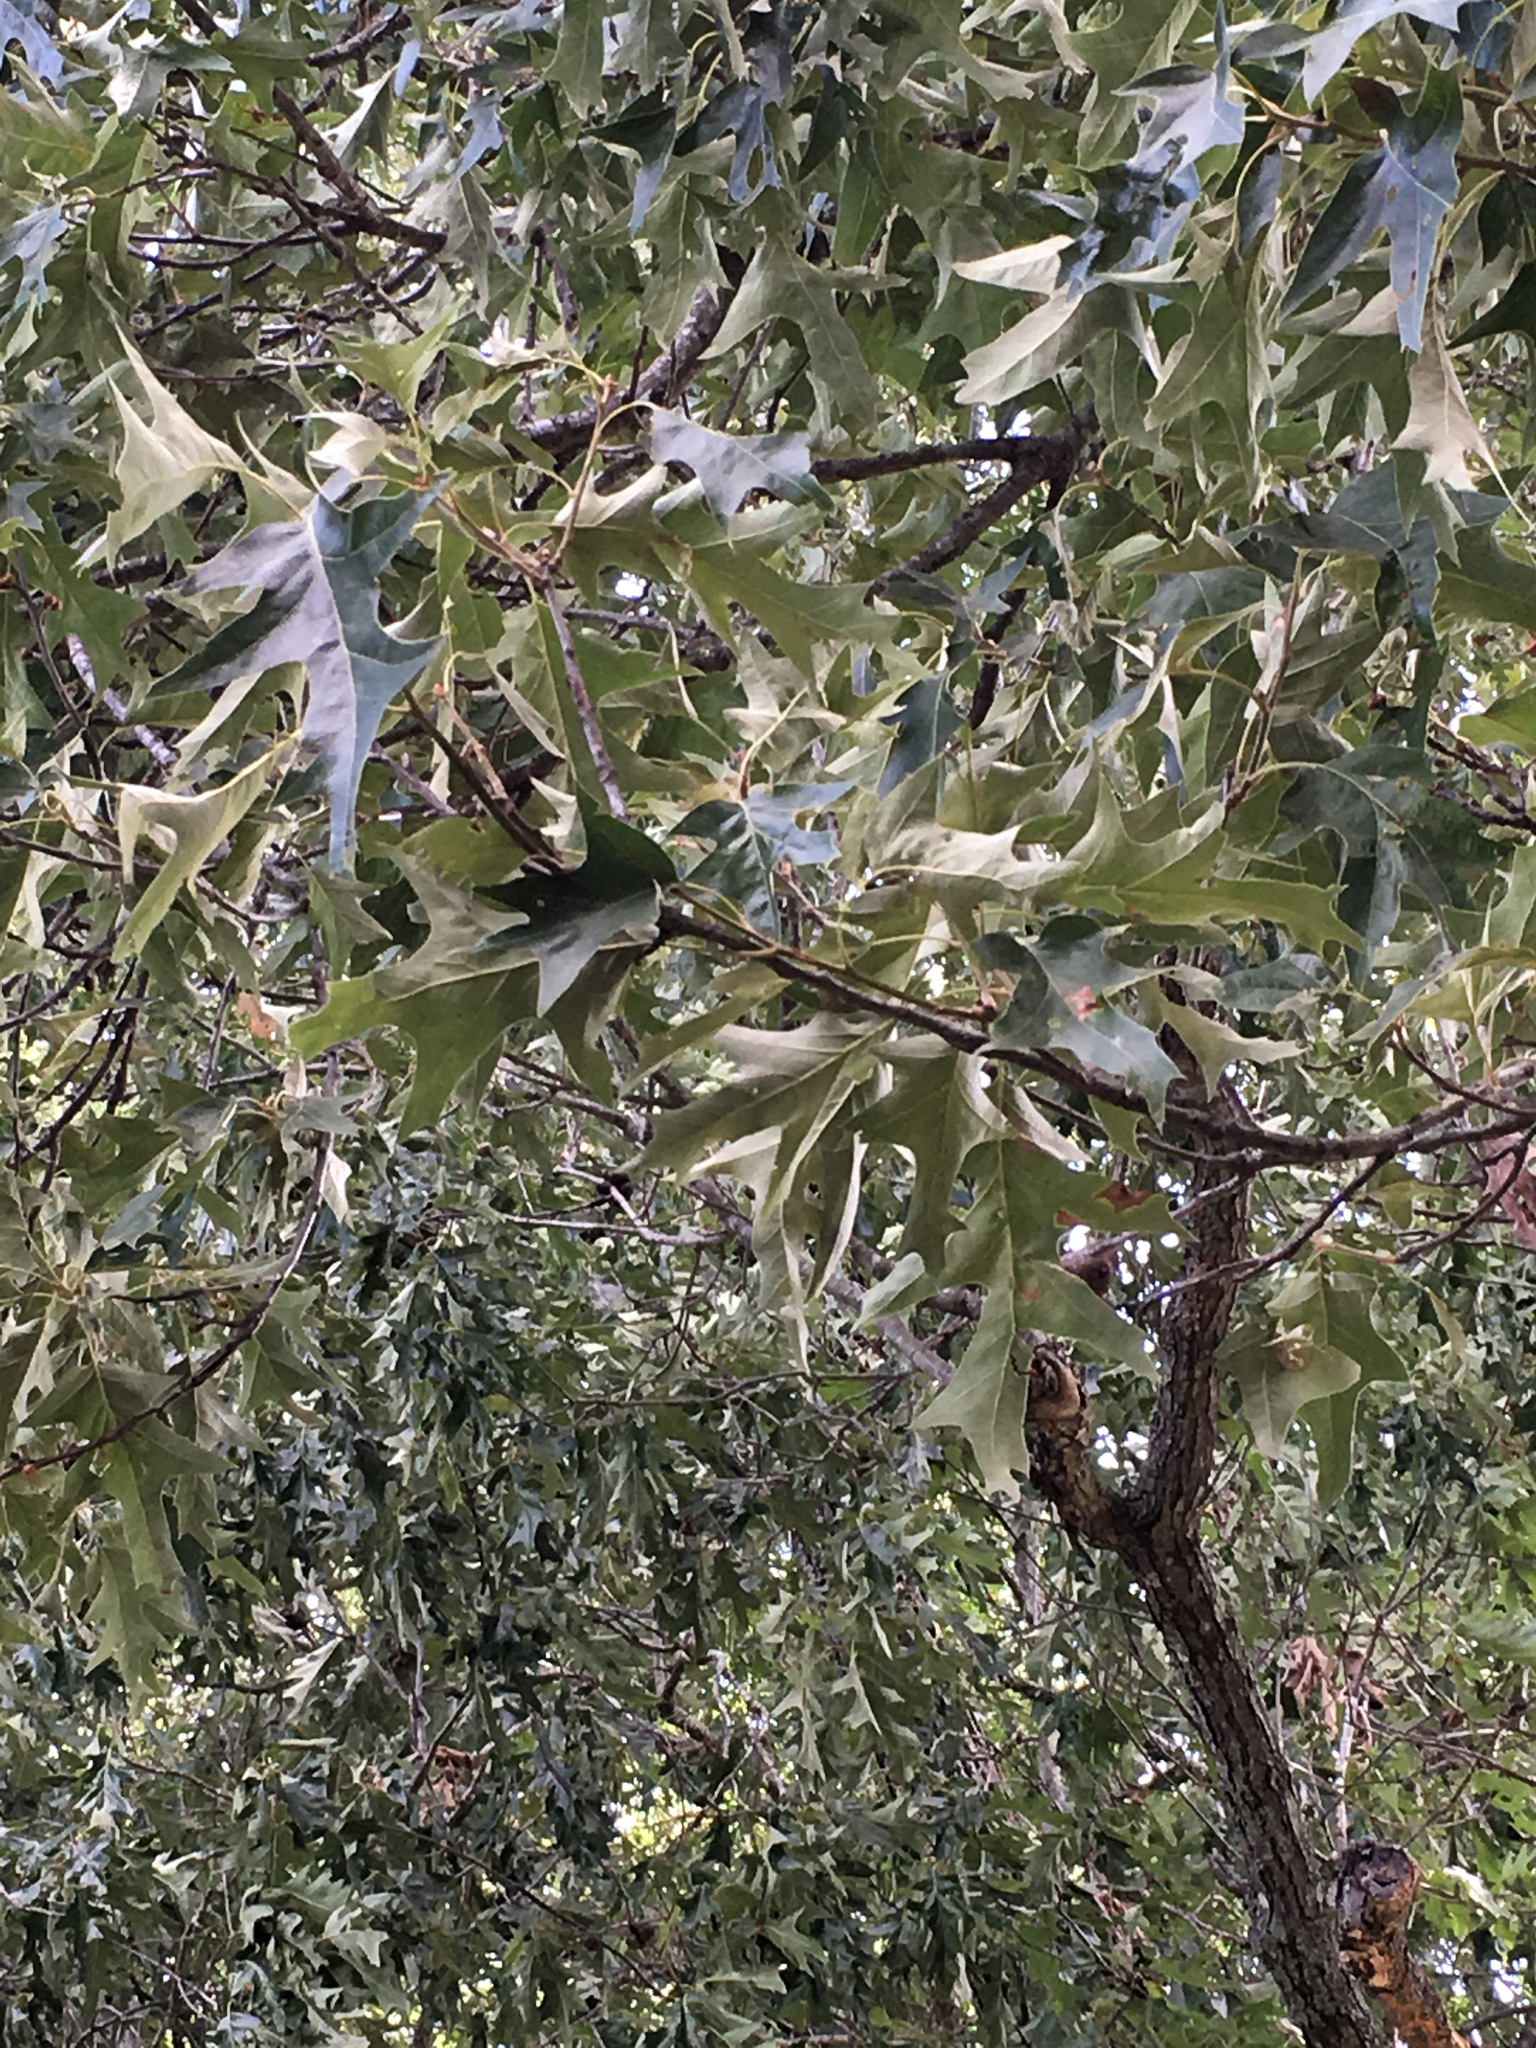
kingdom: Plantae
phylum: Tracheophyta
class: Magnoliopsida
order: Fagales
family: Fagaceae
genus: Quercus
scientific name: Quercus pagoda
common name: Cherrybark oak
